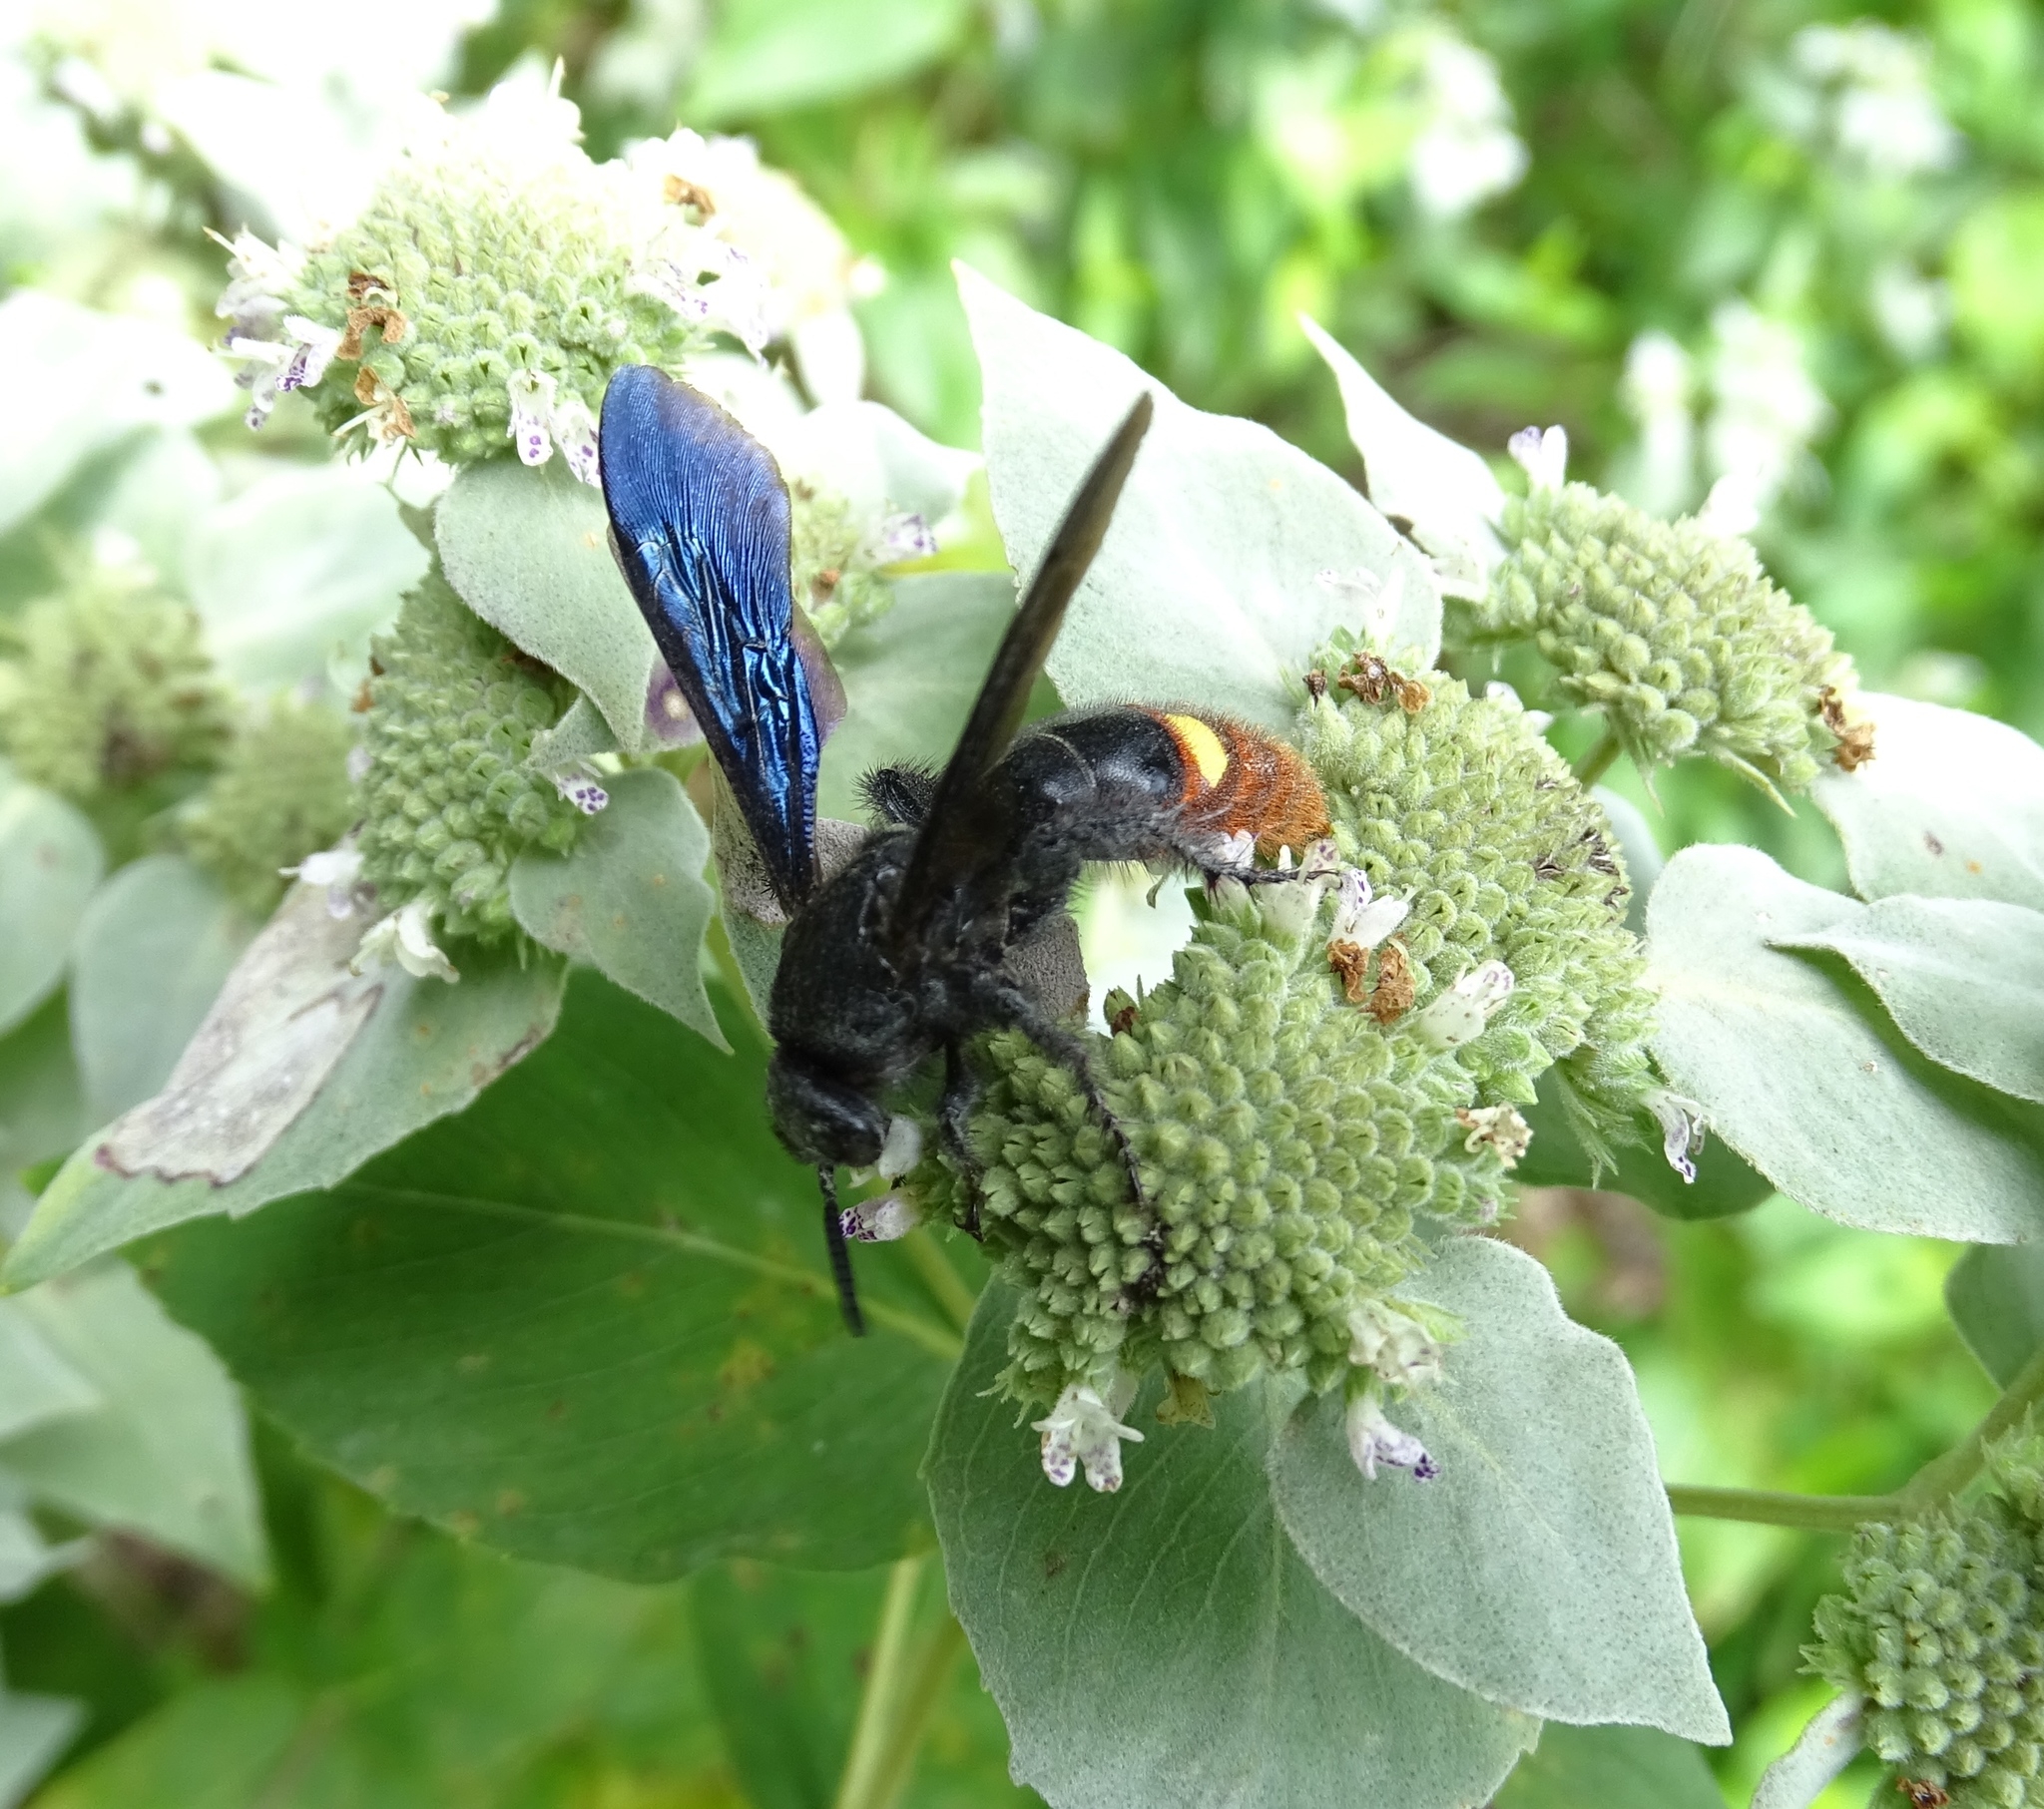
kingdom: Animalia
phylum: Arthropoda
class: Insecta
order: Hymenoptera
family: Scoliidae
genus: Scolia
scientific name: Scolia dubia
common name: Blue-winged scoliid wasp
